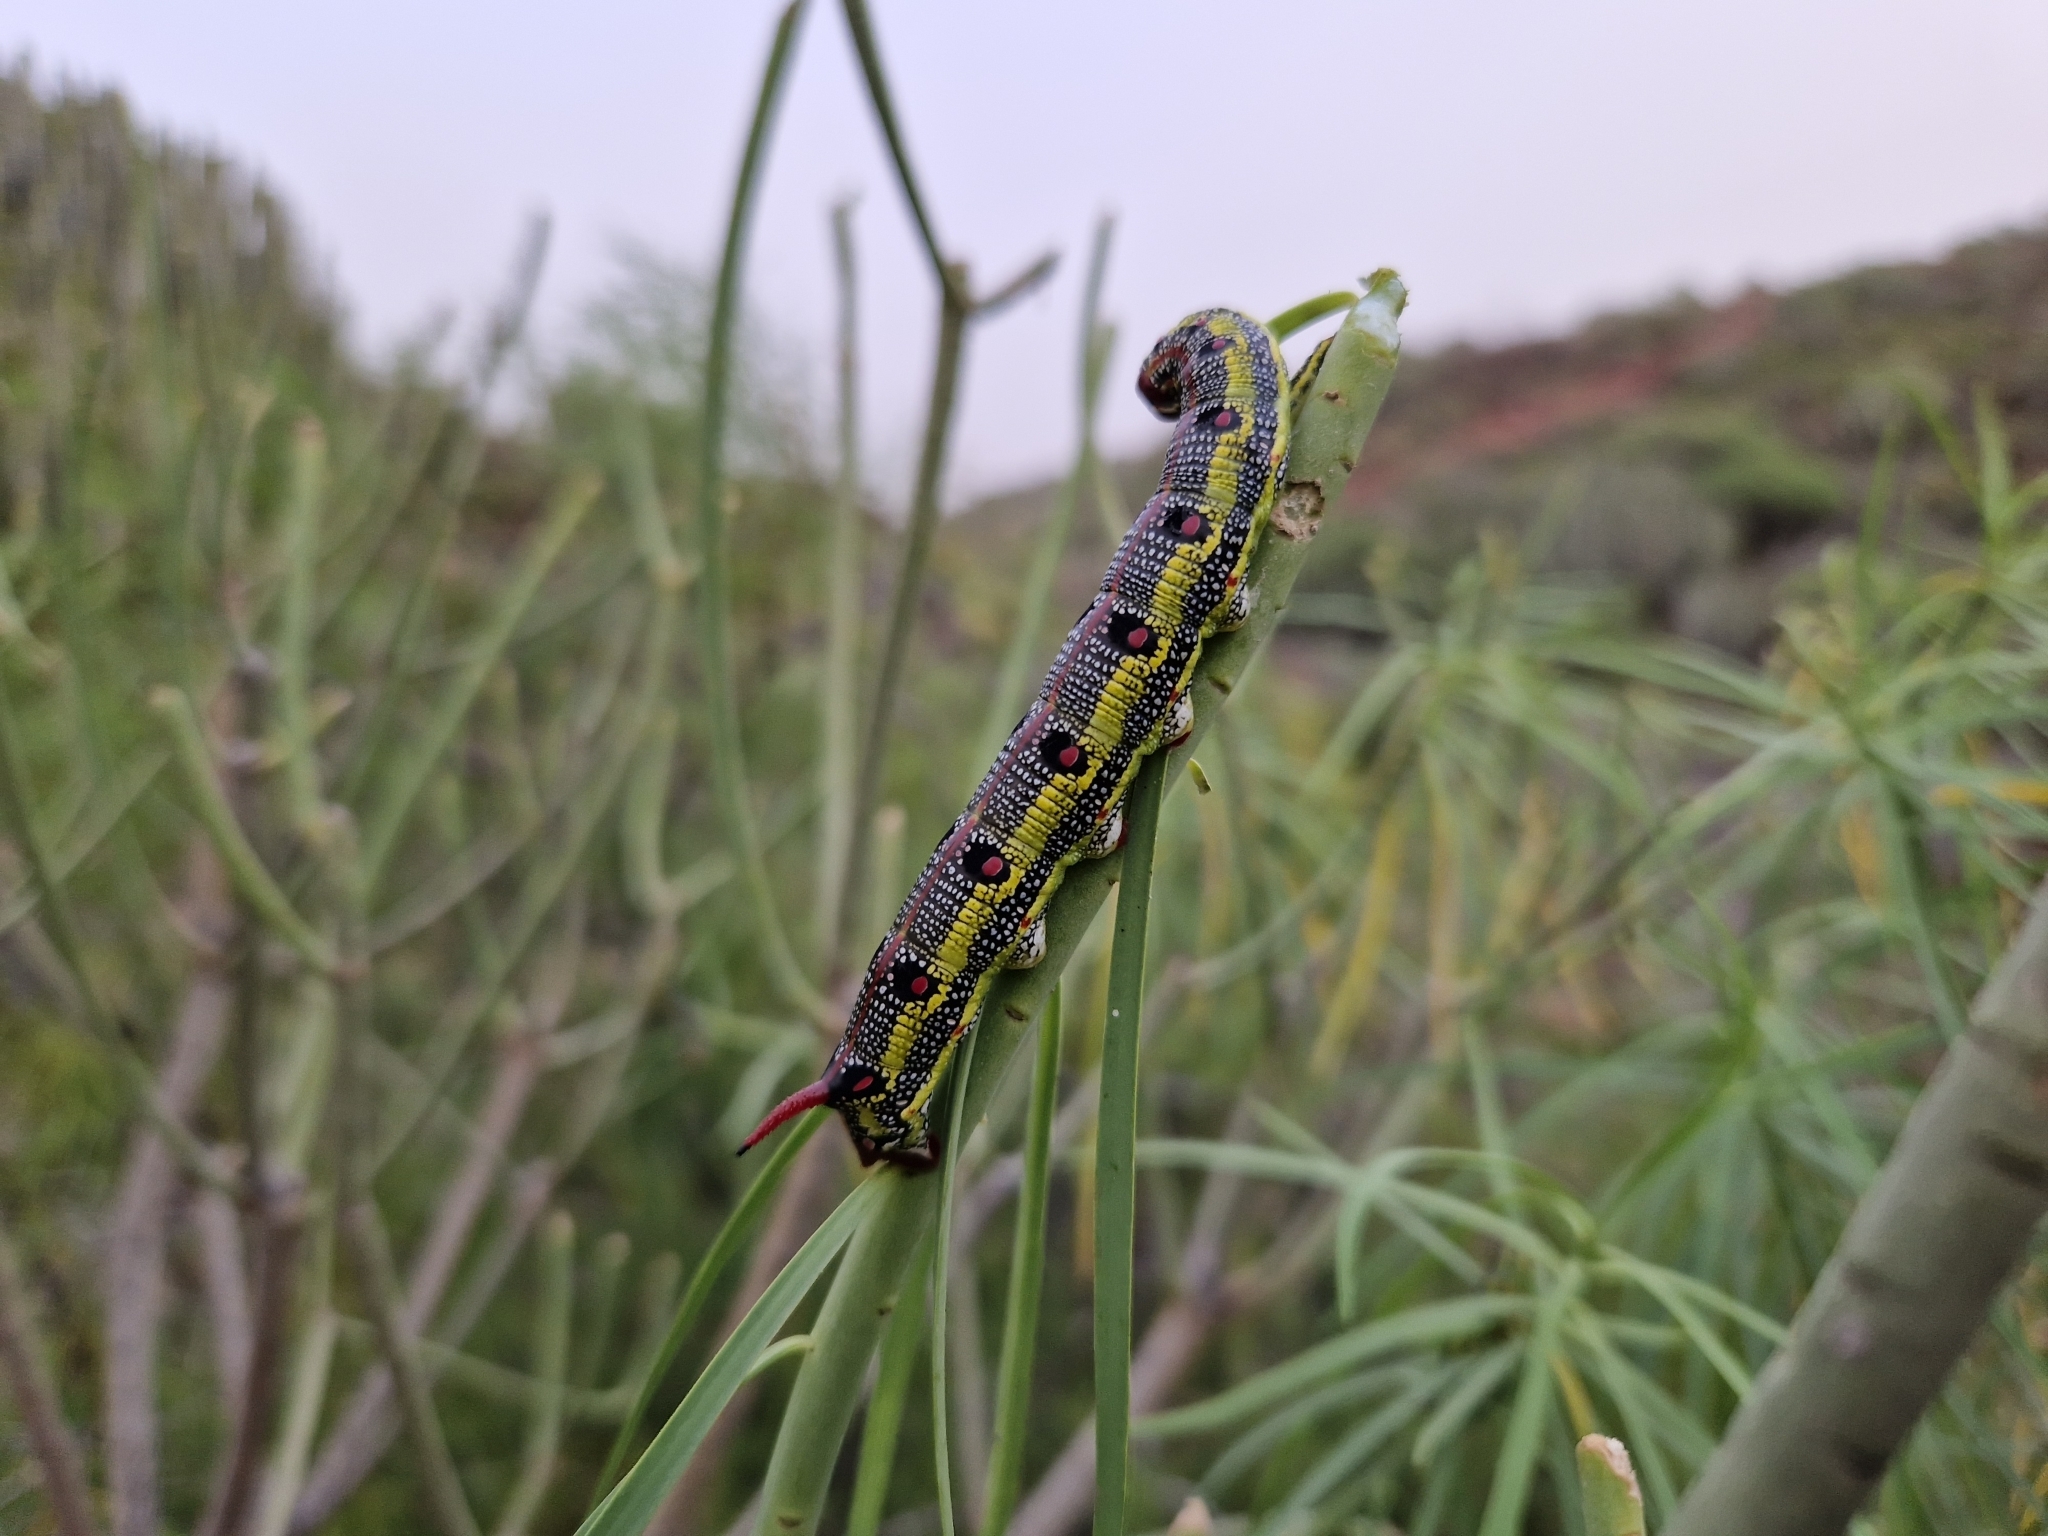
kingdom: Animalia
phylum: Arthropoda
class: Insecta
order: Lepidoptera
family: Sphingidae
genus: Hyles
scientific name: Hyles tithymali
